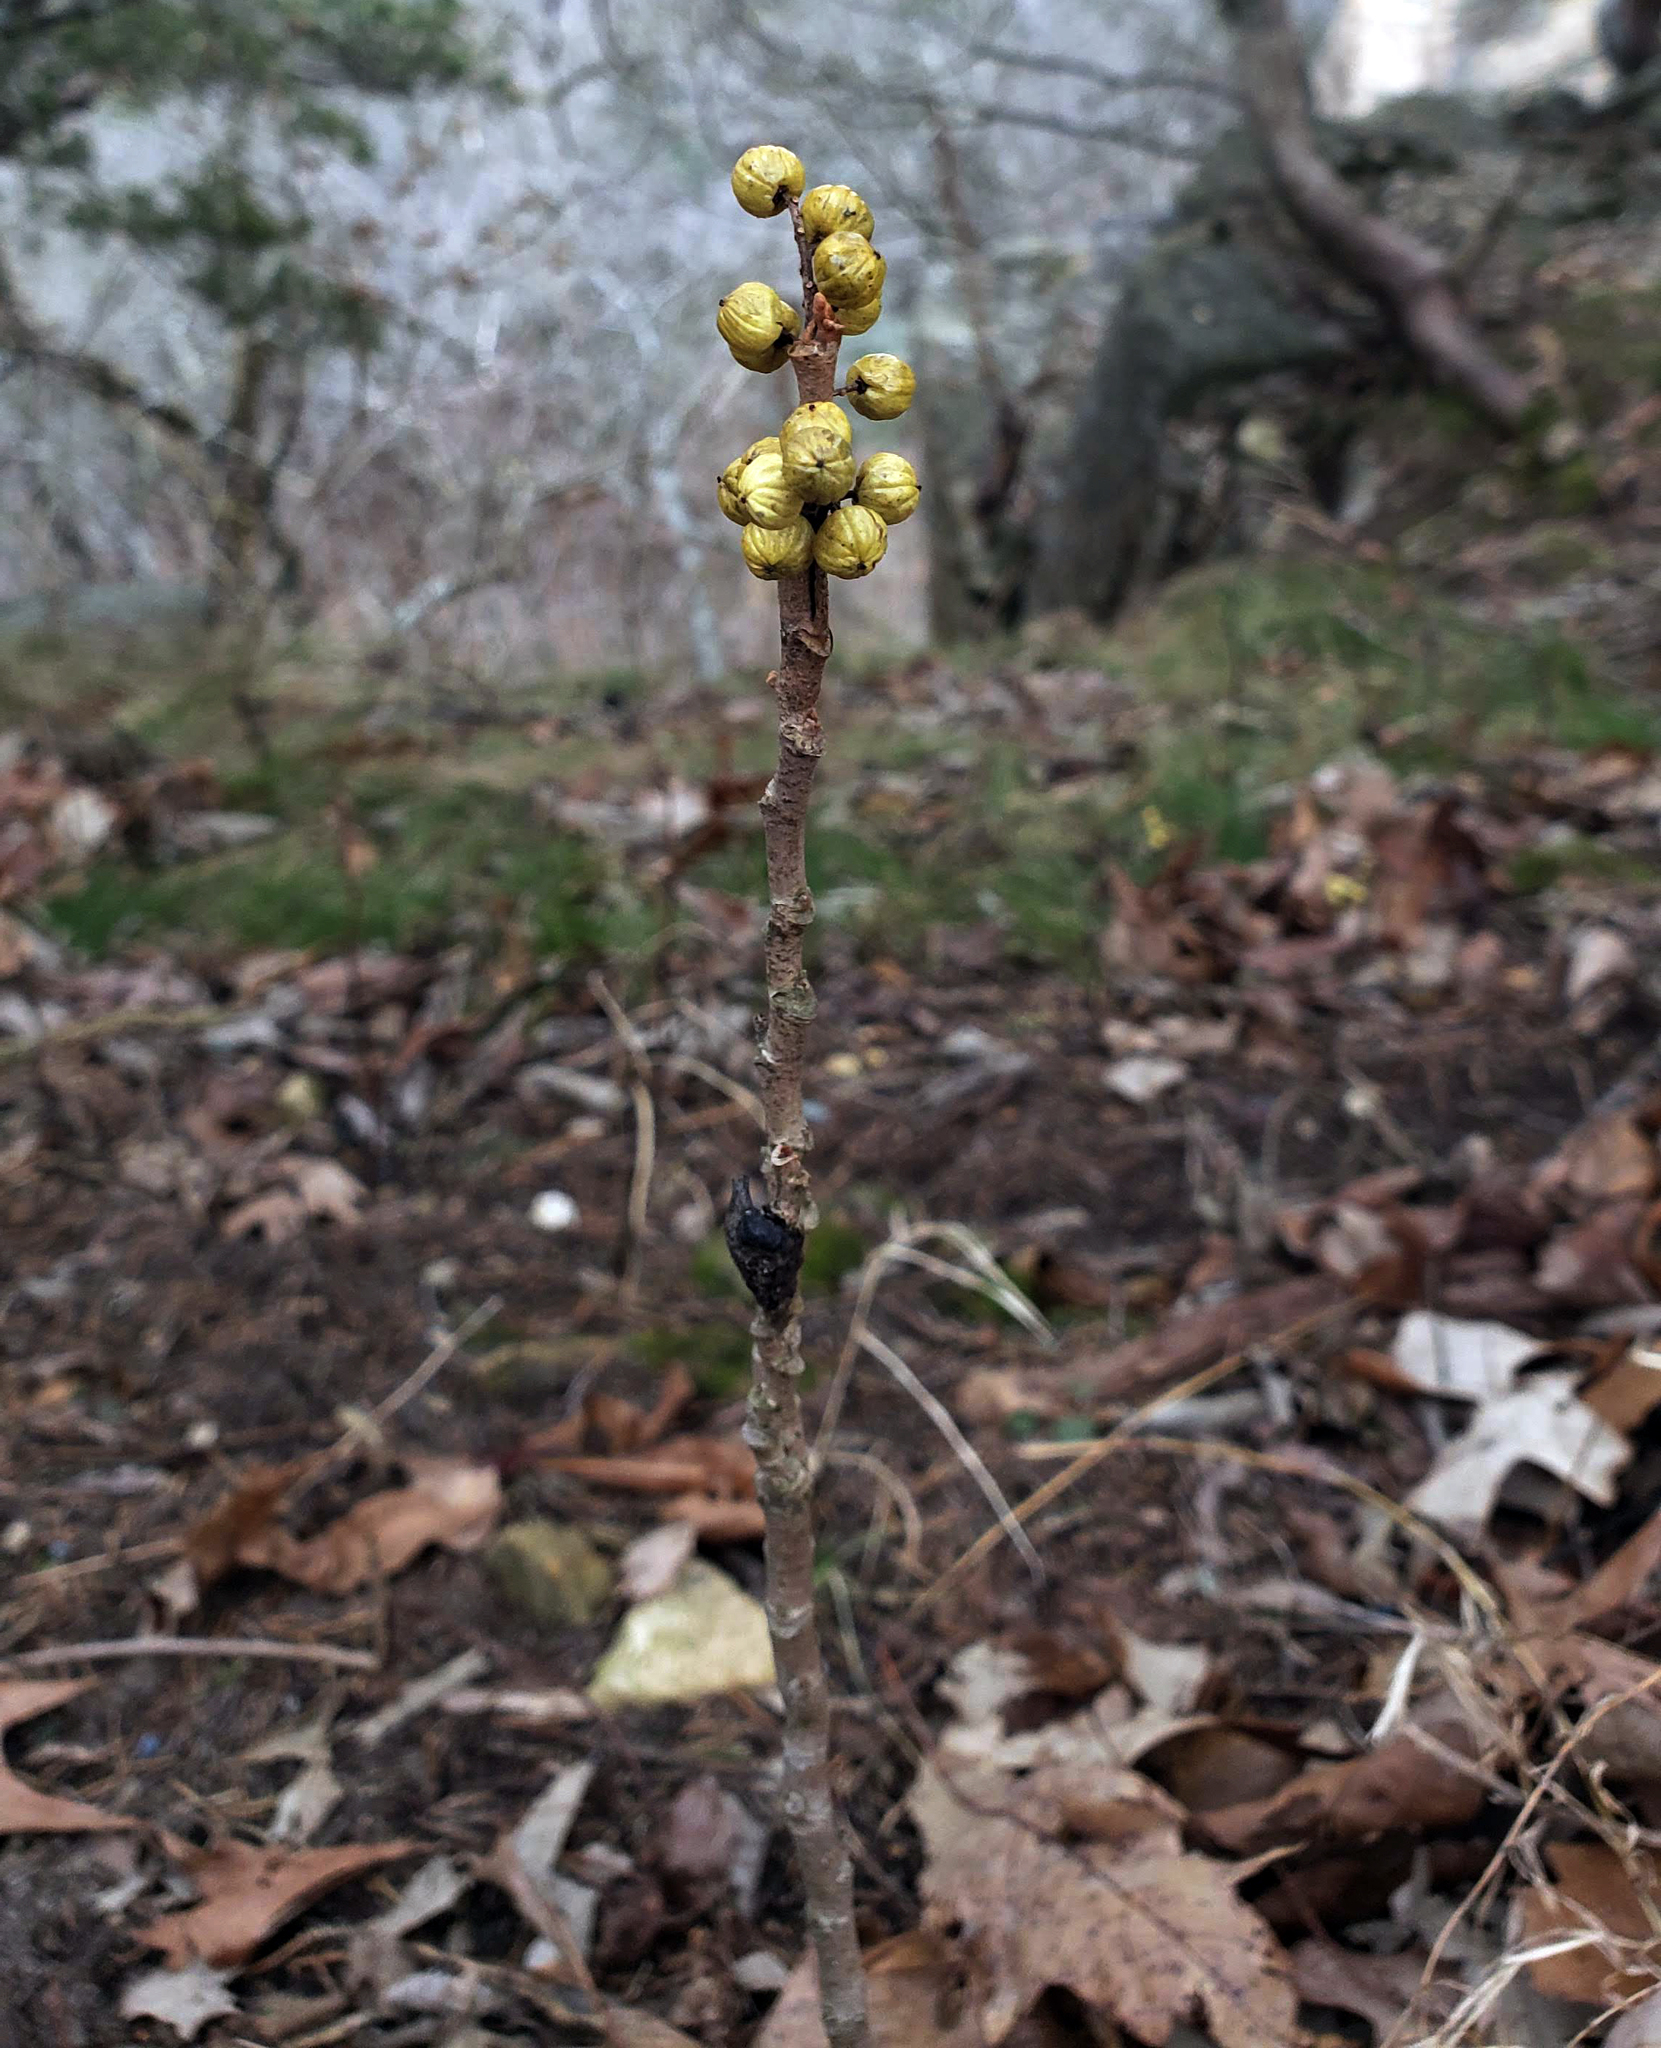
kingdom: Plantae
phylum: Tracheophyta
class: Magnoliopsida
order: Sapindales
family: Anacardiaceae
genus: Toxicodendron
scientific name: Toxicodendron rydbergii
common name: Rydberg's poison-ivy
